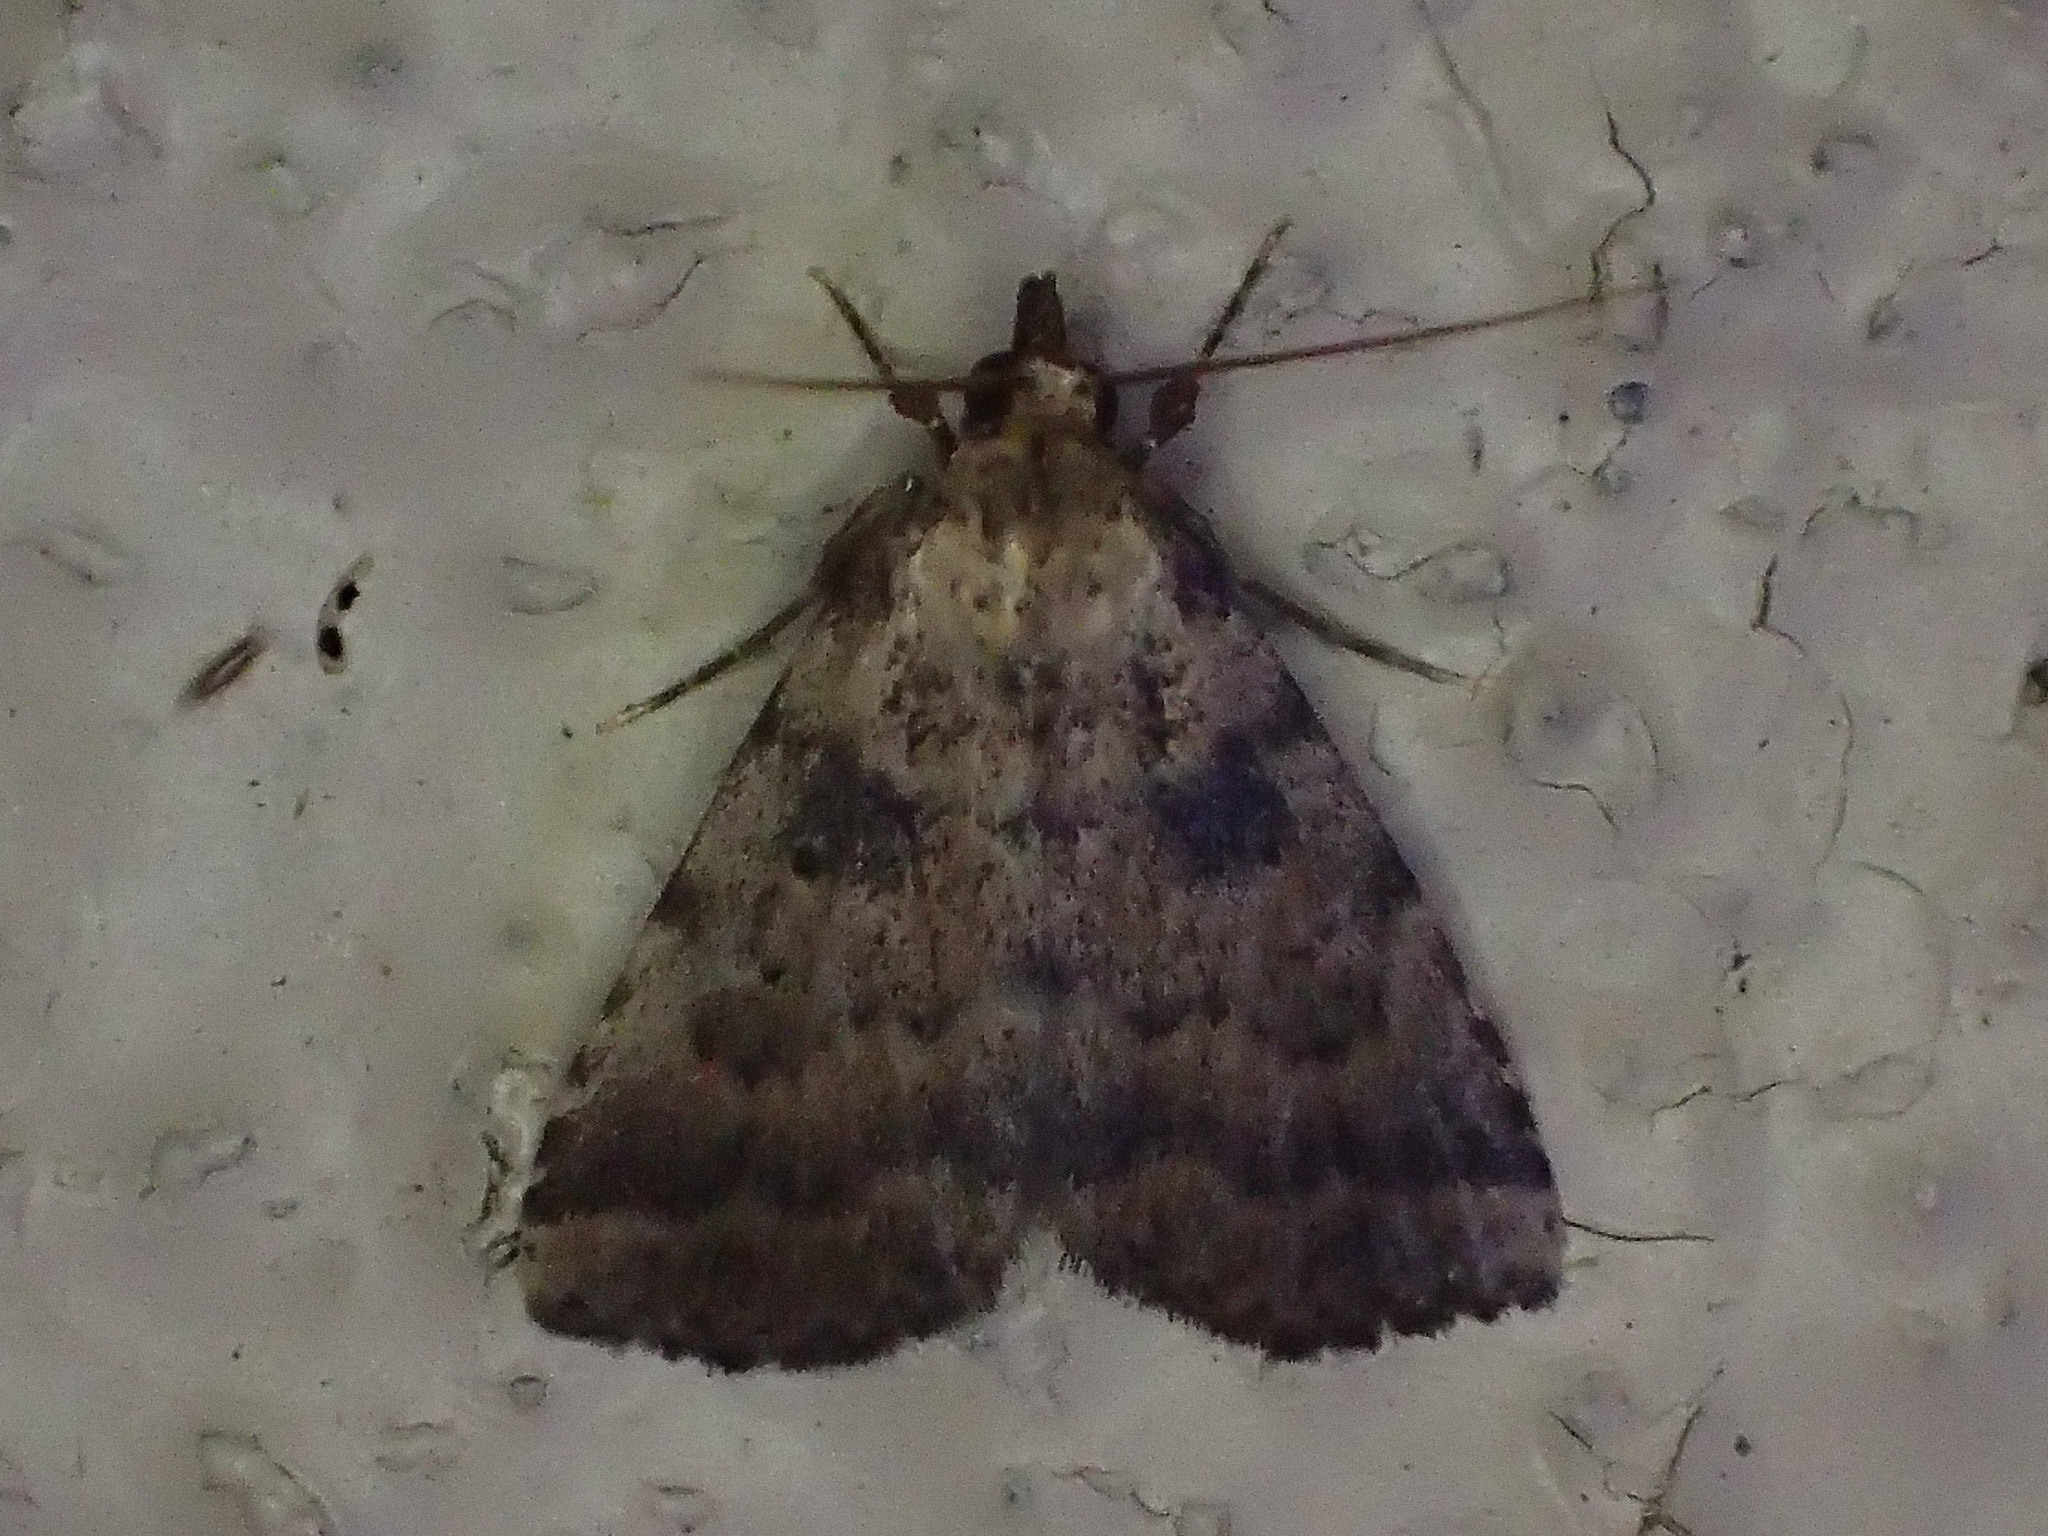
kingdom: Animalia
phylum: Arthropoda
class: Insecta
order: Lepidoptera
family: Erebidae
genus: Arugisa
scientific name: Arugisa lutea
